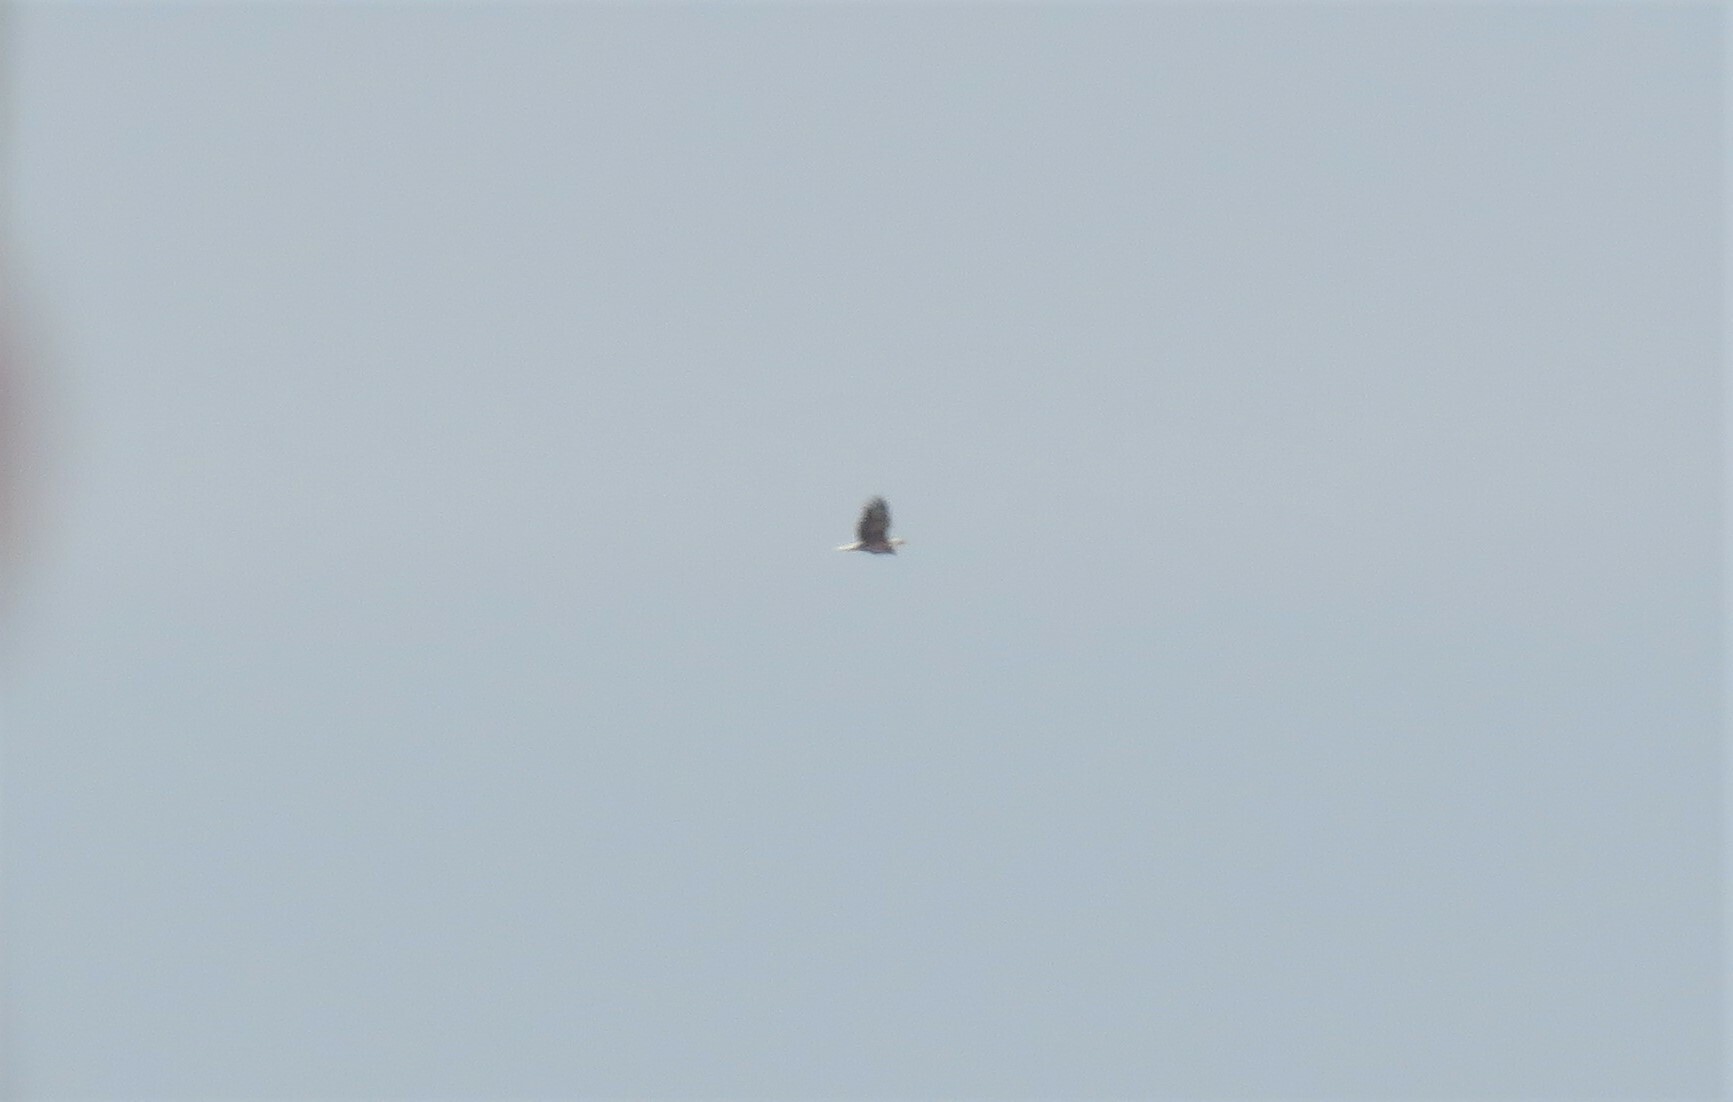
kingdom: Animalia
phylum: Chordata
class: Aves
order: Accipitriformes
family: Accipitridae
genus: Haliaeetus
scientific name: Haliaeetus leucocephalus
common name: Bald eagle
